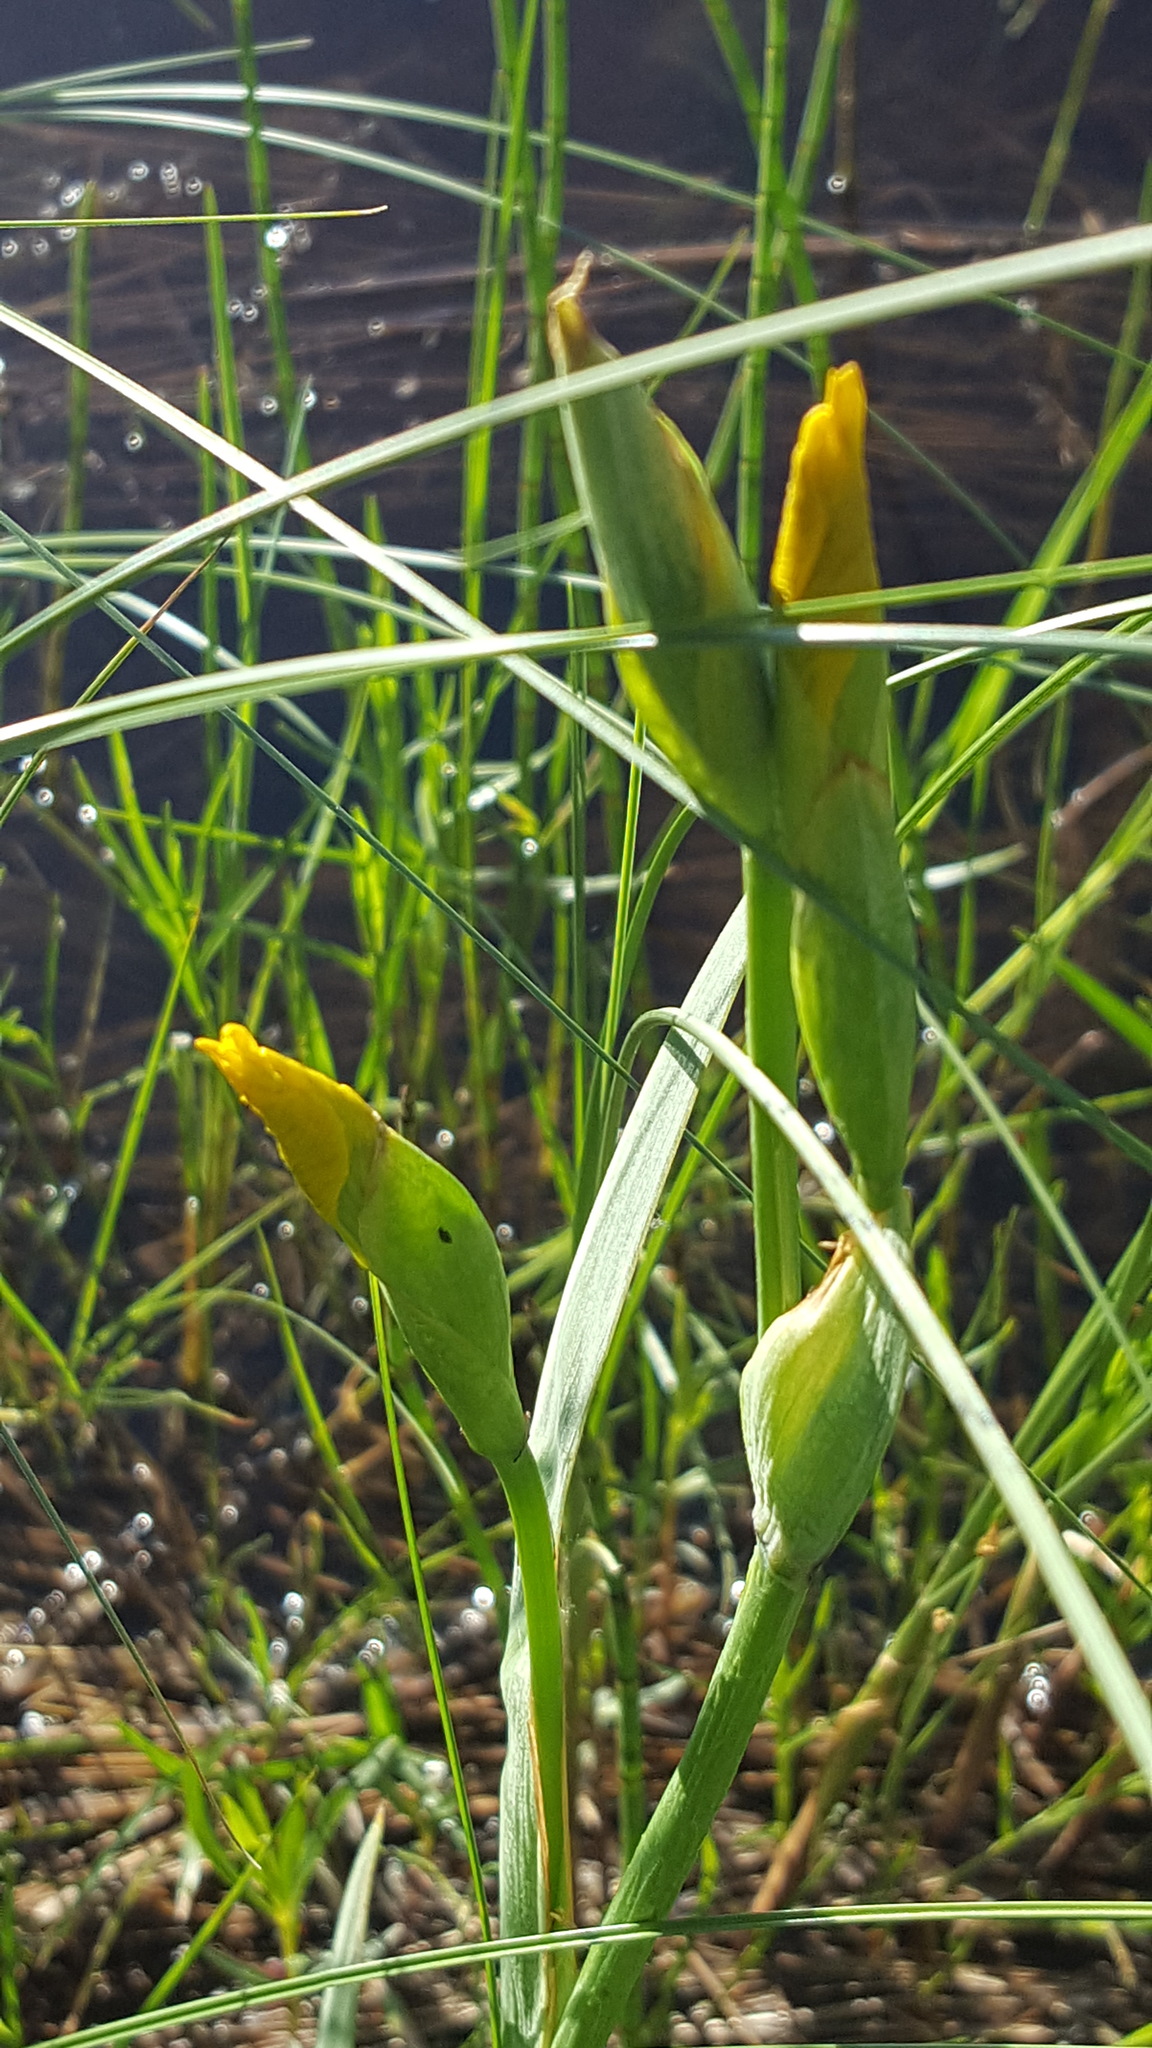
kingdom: Plantae
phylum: Tracheophyta
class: Liliopsida
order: Asparagales
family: Iridaceae
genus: Iris
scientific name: Iris pseudacorus
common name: Yellow flag
